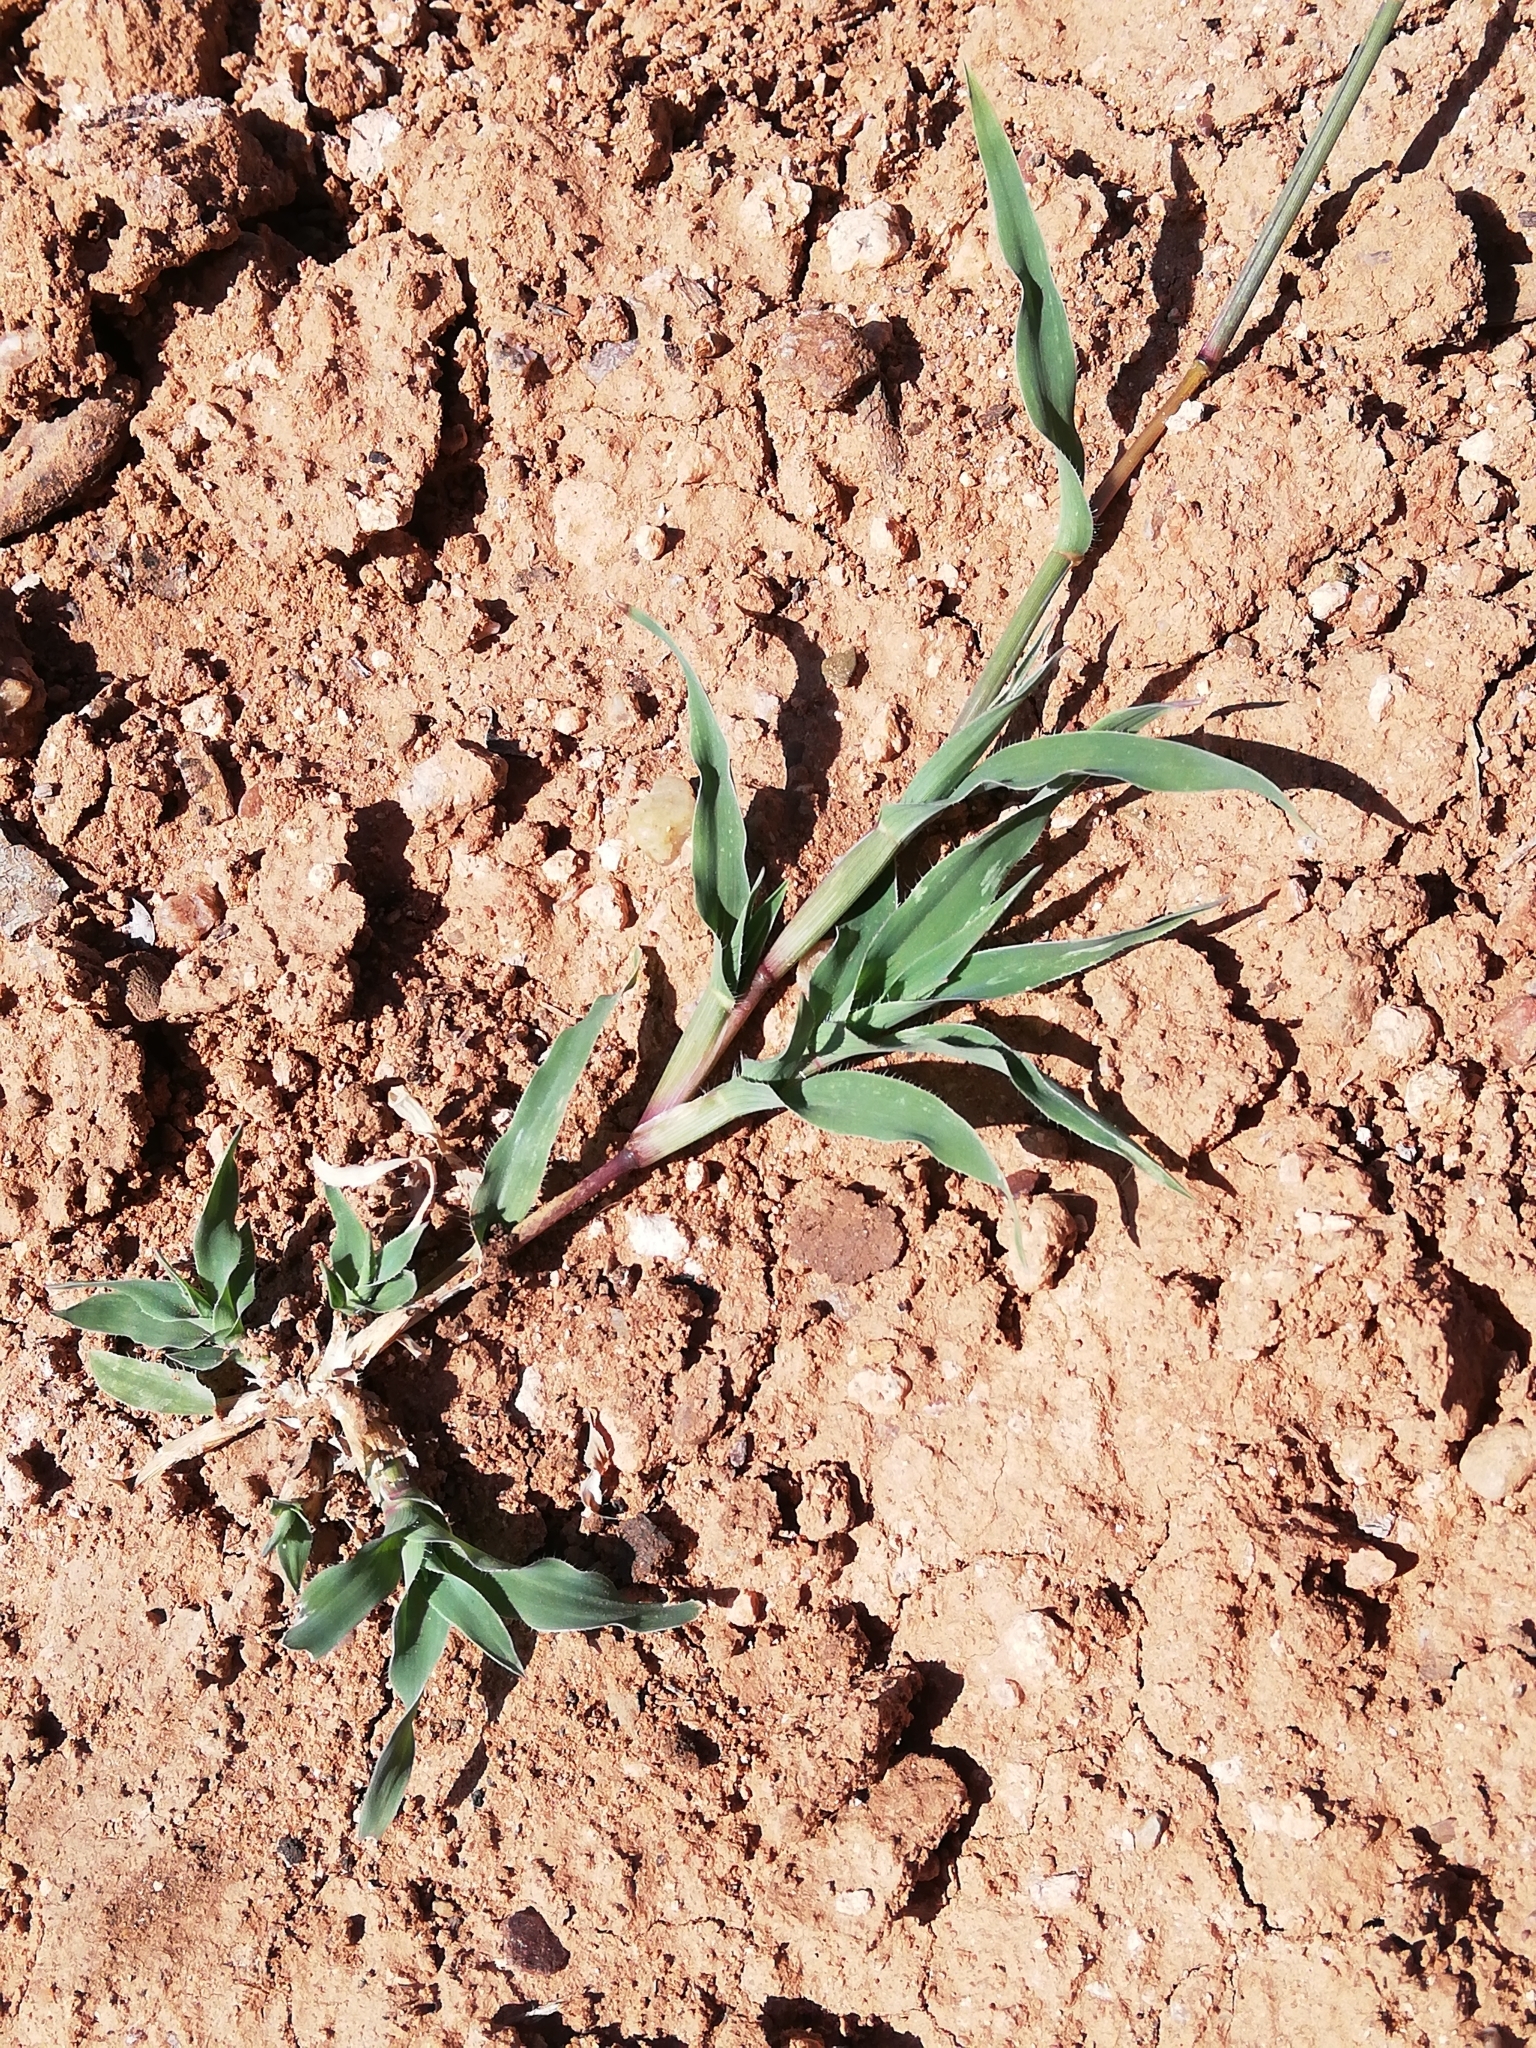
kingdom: Plantae
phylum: Tracheophyta
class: Liliopsida
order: Poales
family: Poaceae
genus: Tragus
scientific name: Tragus berteronianus
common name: African bur-grass
